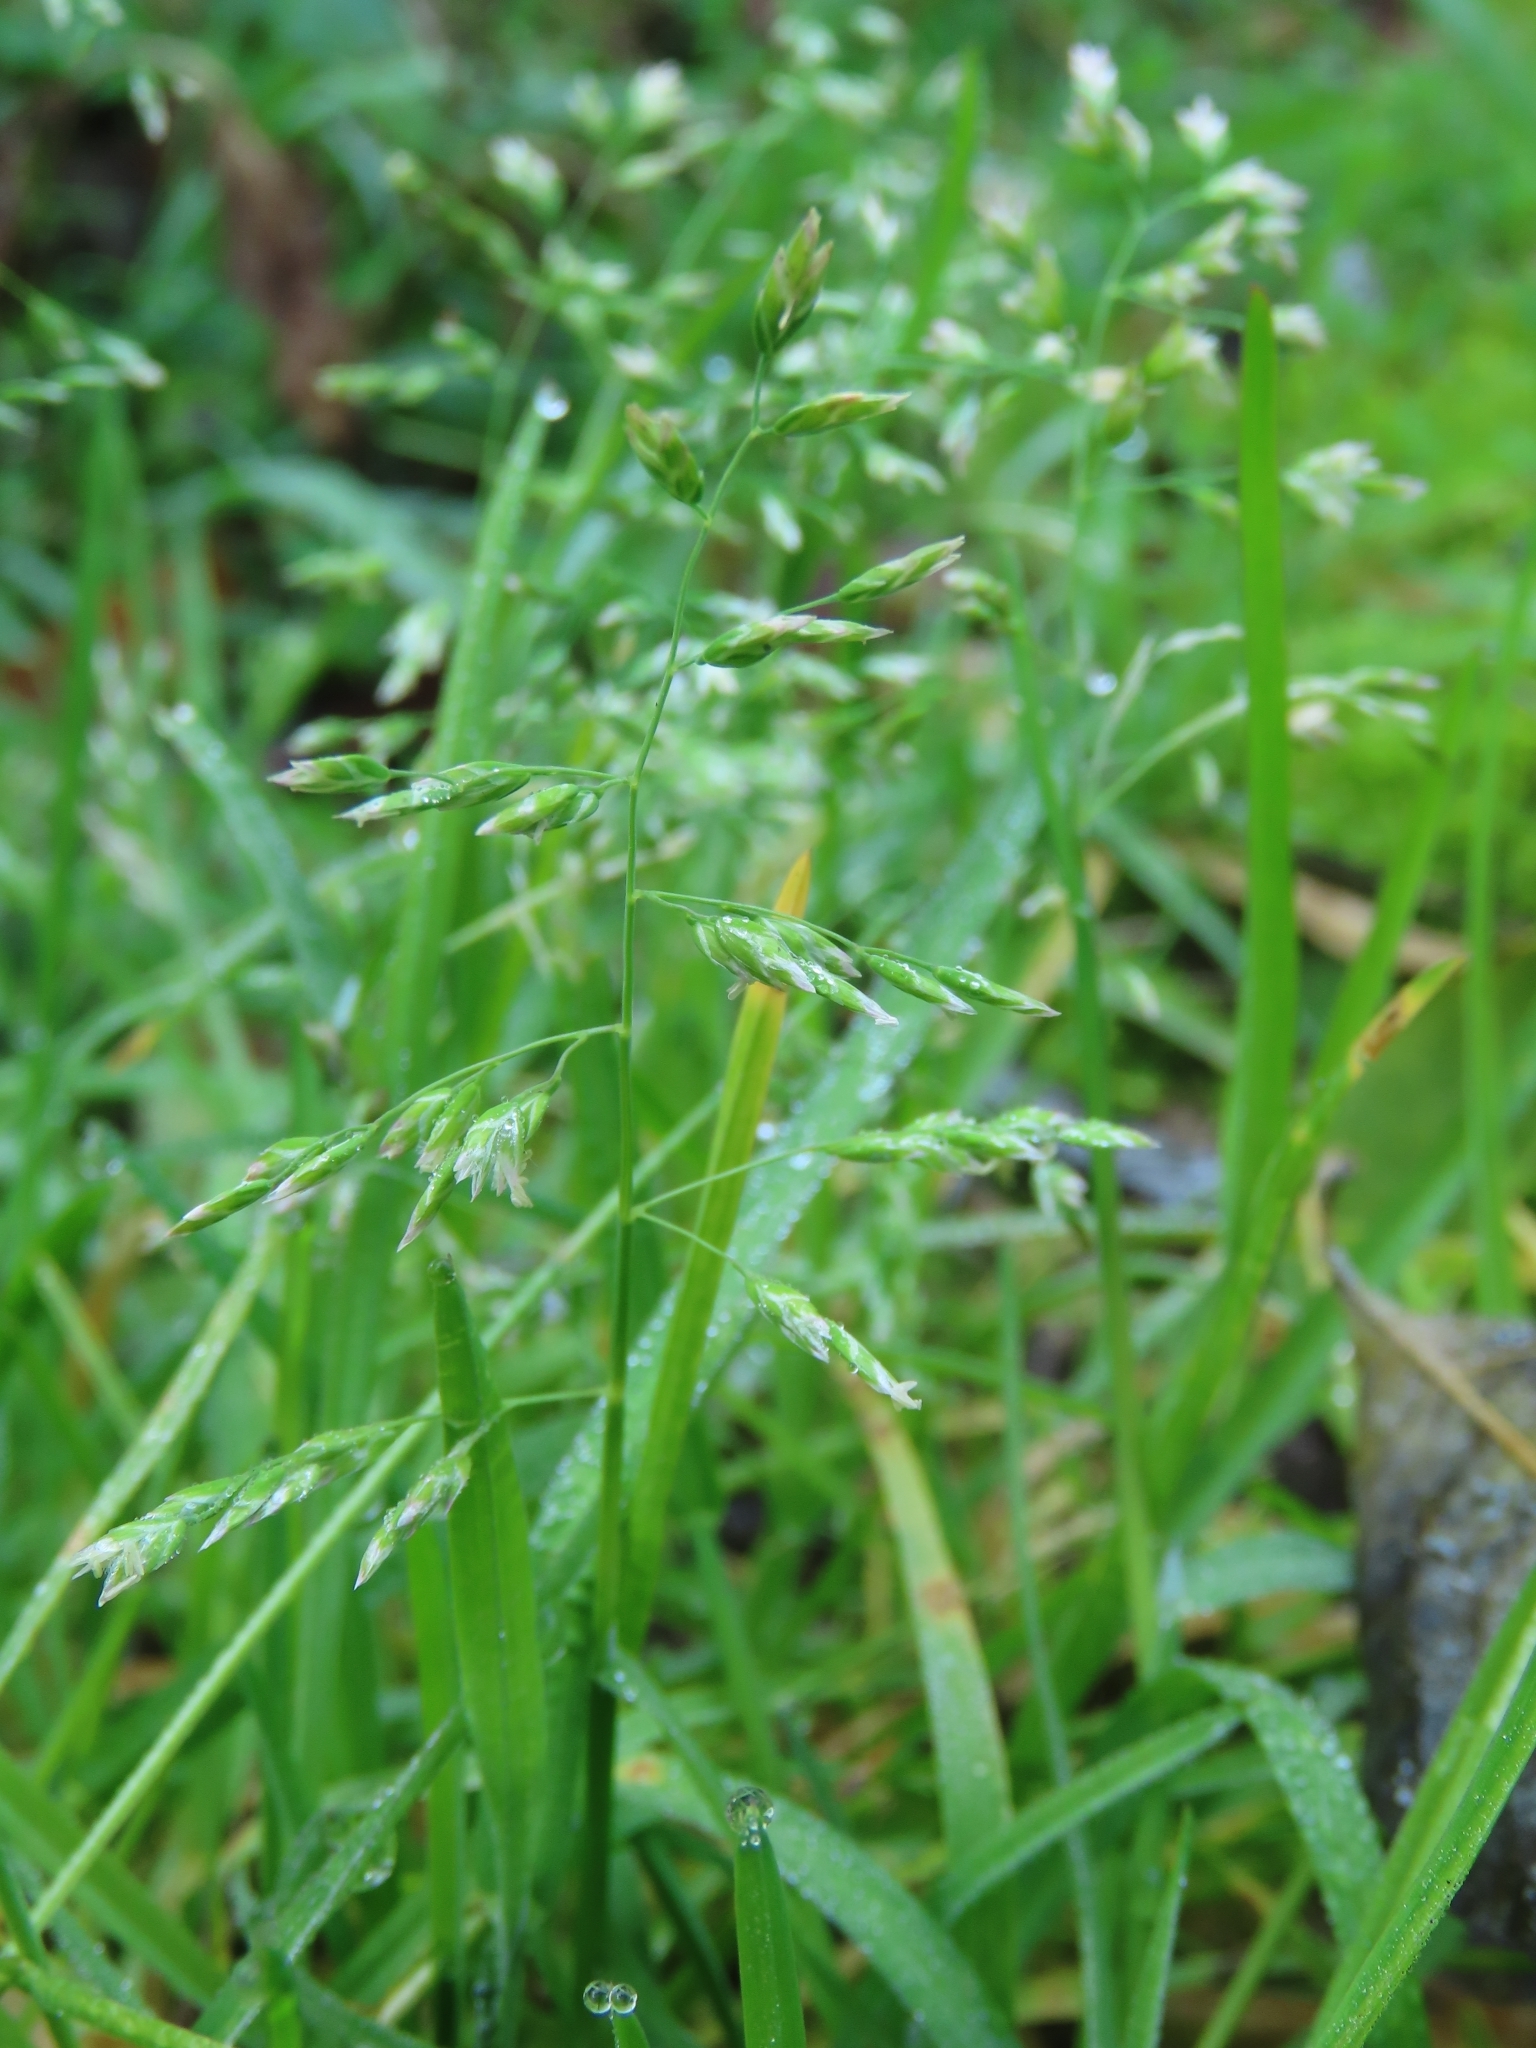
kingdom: Plantae
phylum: Tracheophyta
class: Liliopsida
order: Poales
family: Poaceae
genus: Poa
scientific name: Poa annua
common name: Annual bluegrass
